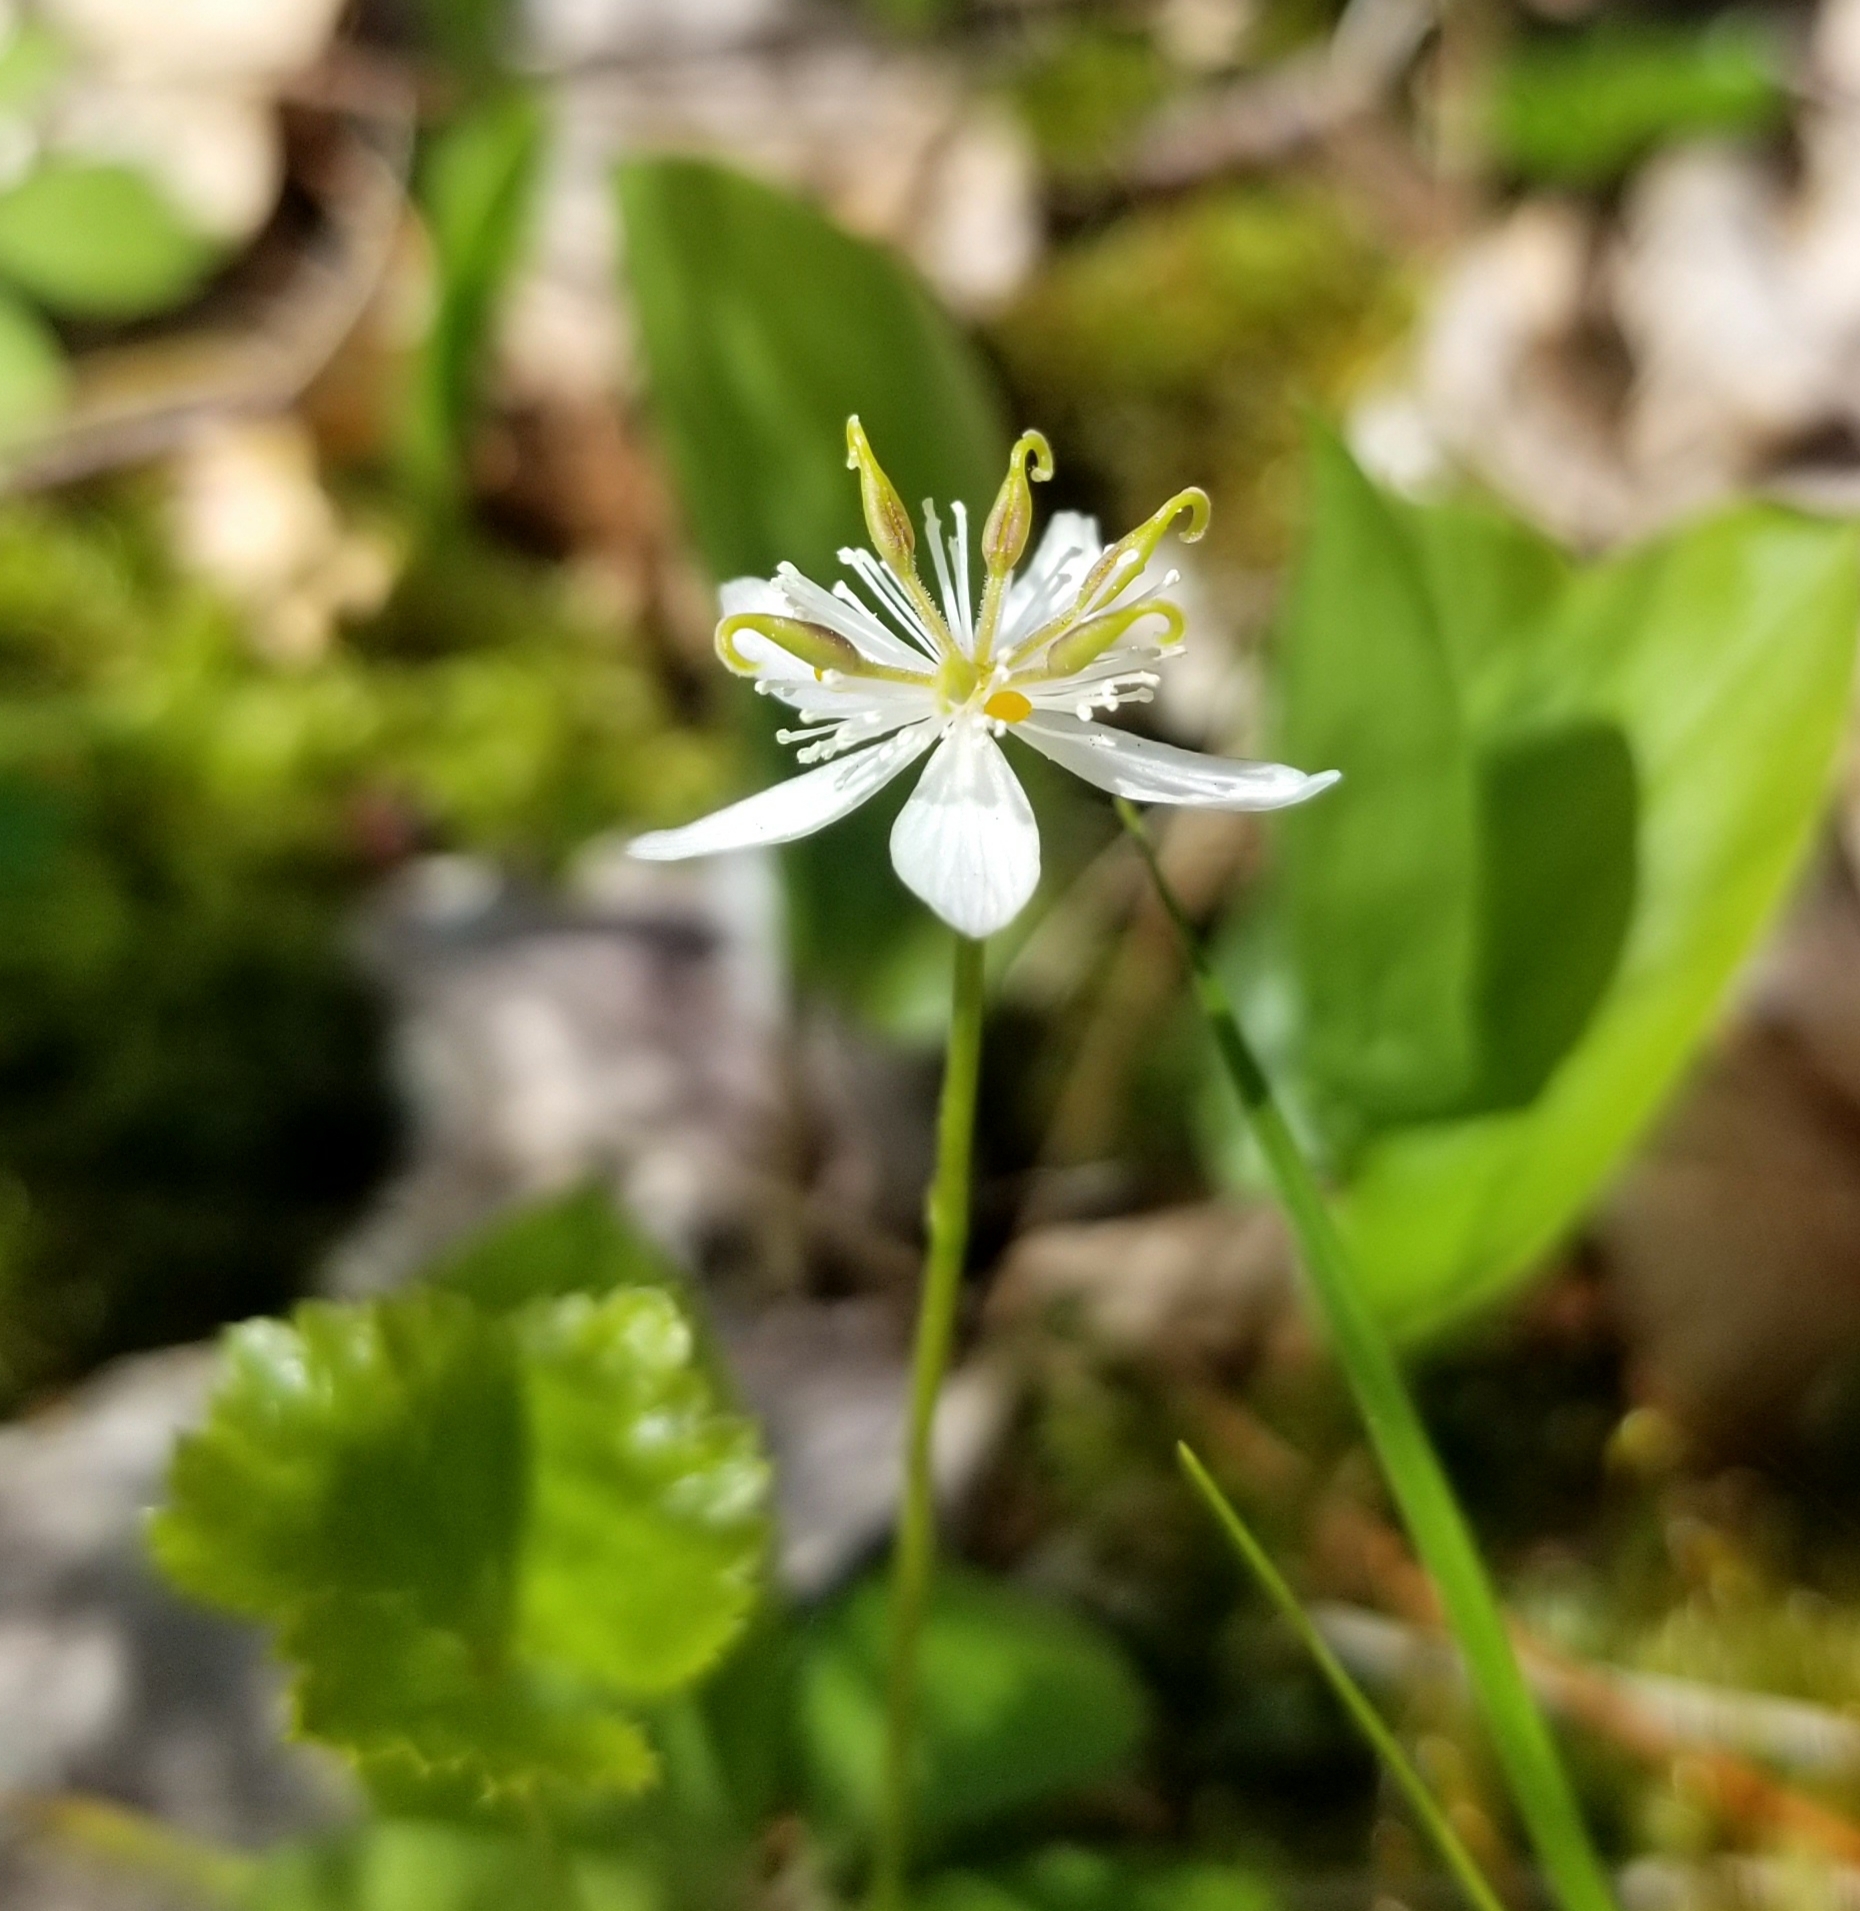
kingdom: Plantae
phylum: Tracheophyta
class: Magnoliopsida
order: Ranunculales
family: Ranunculaceae
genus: Coptis
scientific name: Coptis trifolia
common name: Canker-root
